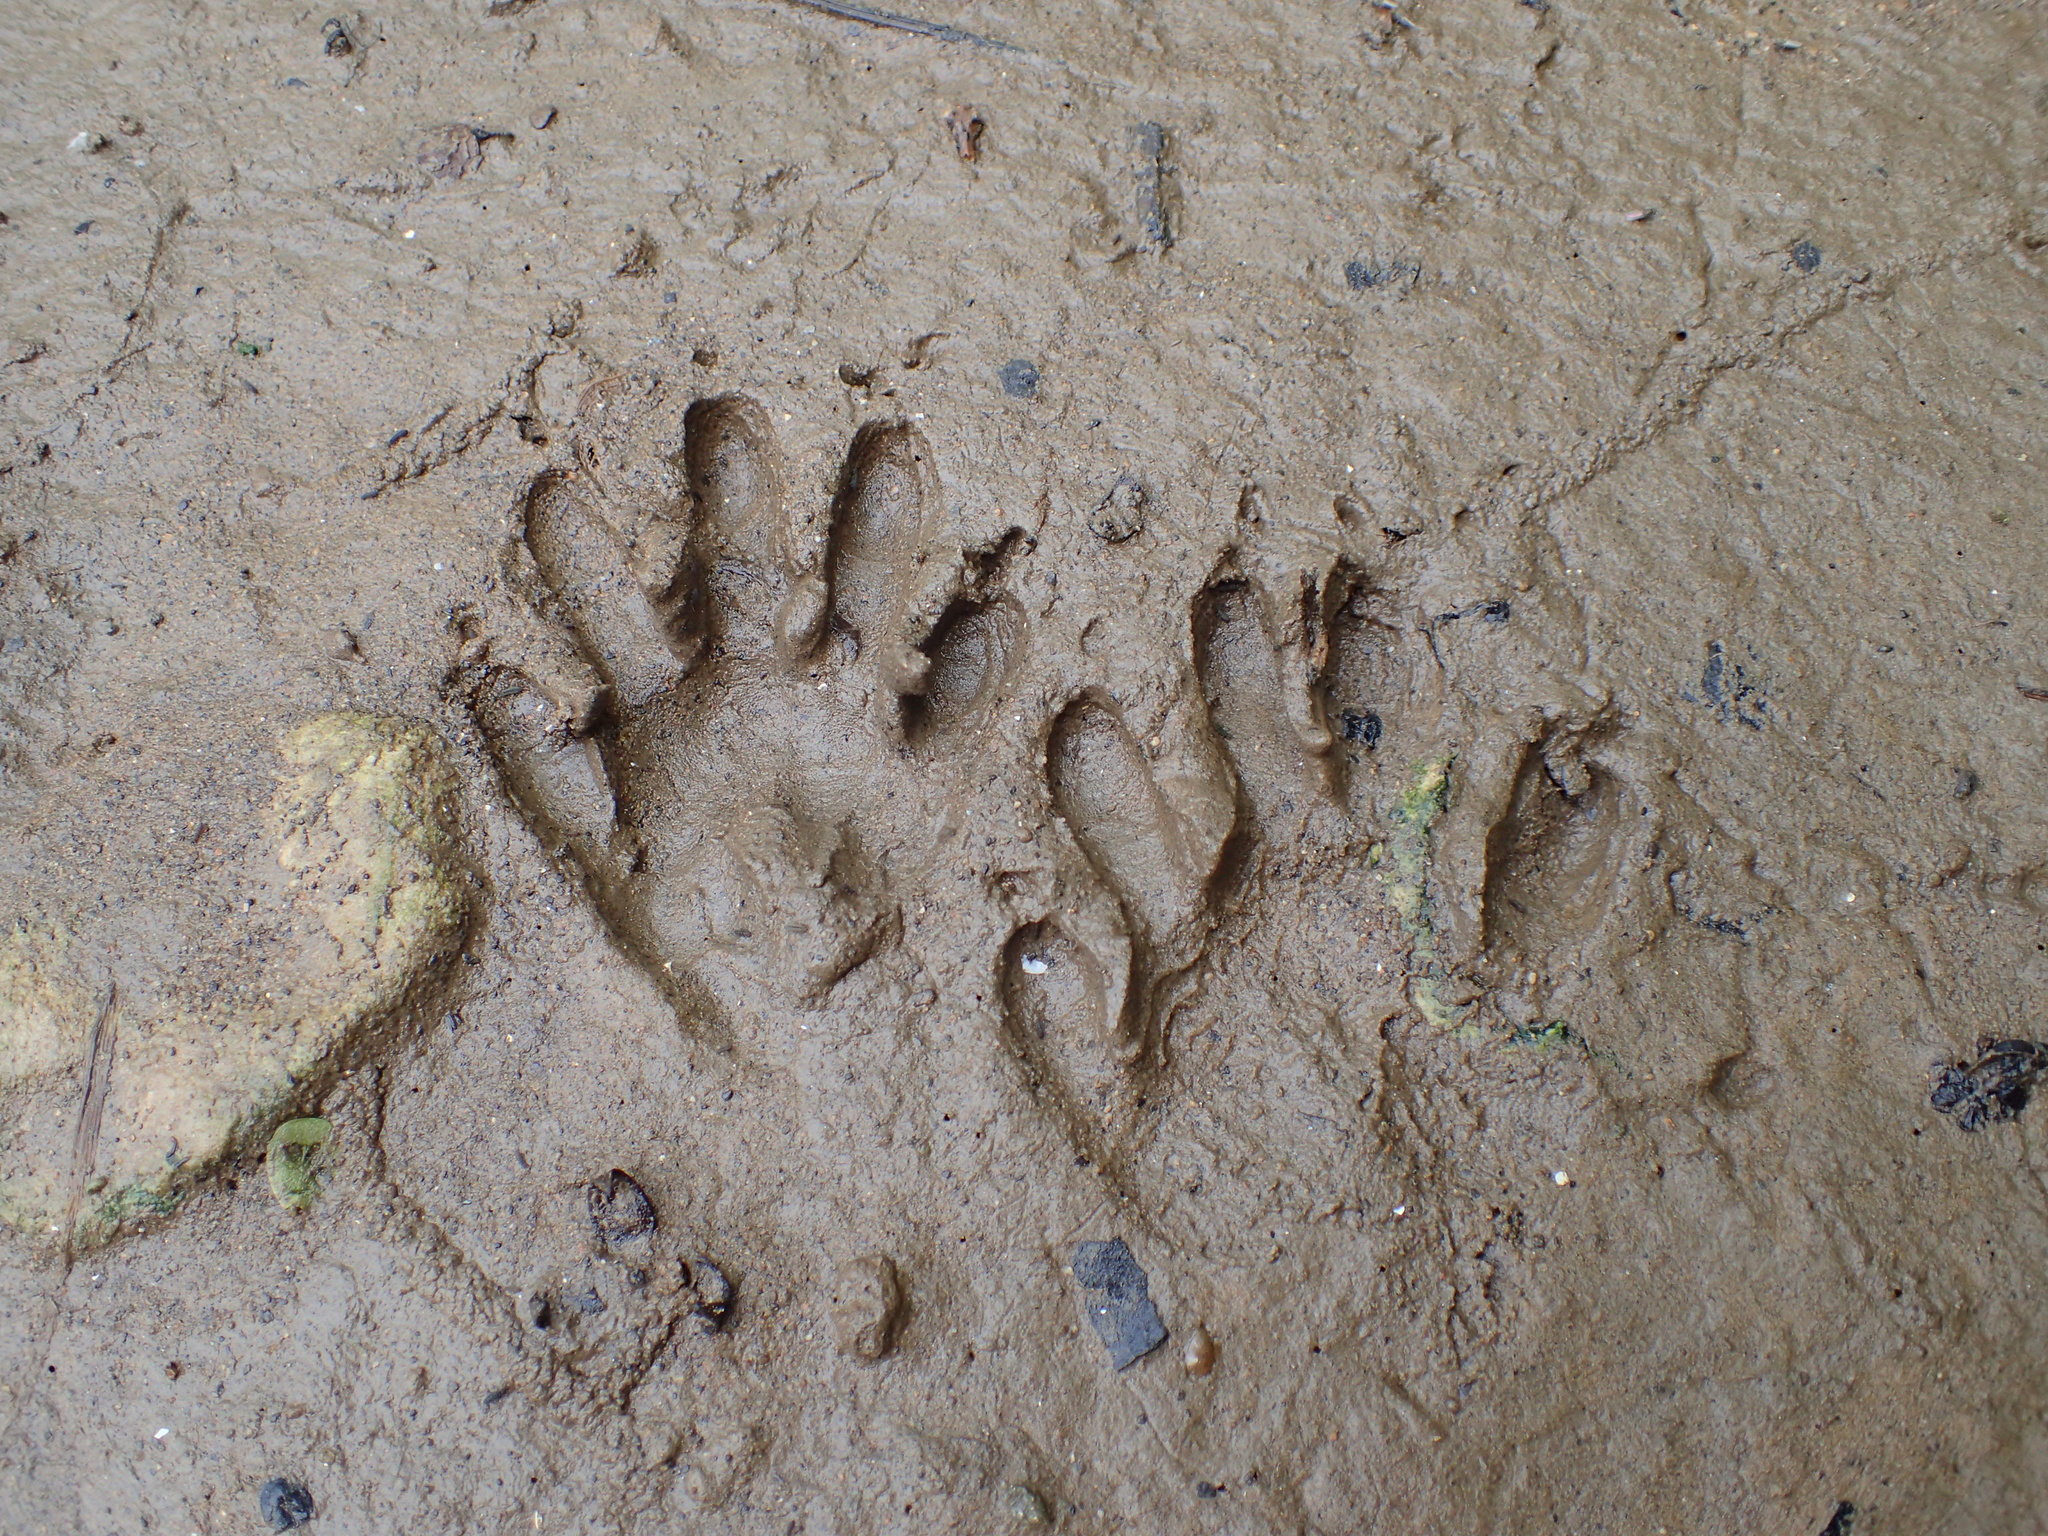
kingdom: Animalia
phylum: Chordata
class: Mammalia
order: Carnivora
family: Procyonidae
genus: Procyon
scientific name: Procyon lotor
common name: Raccoon
